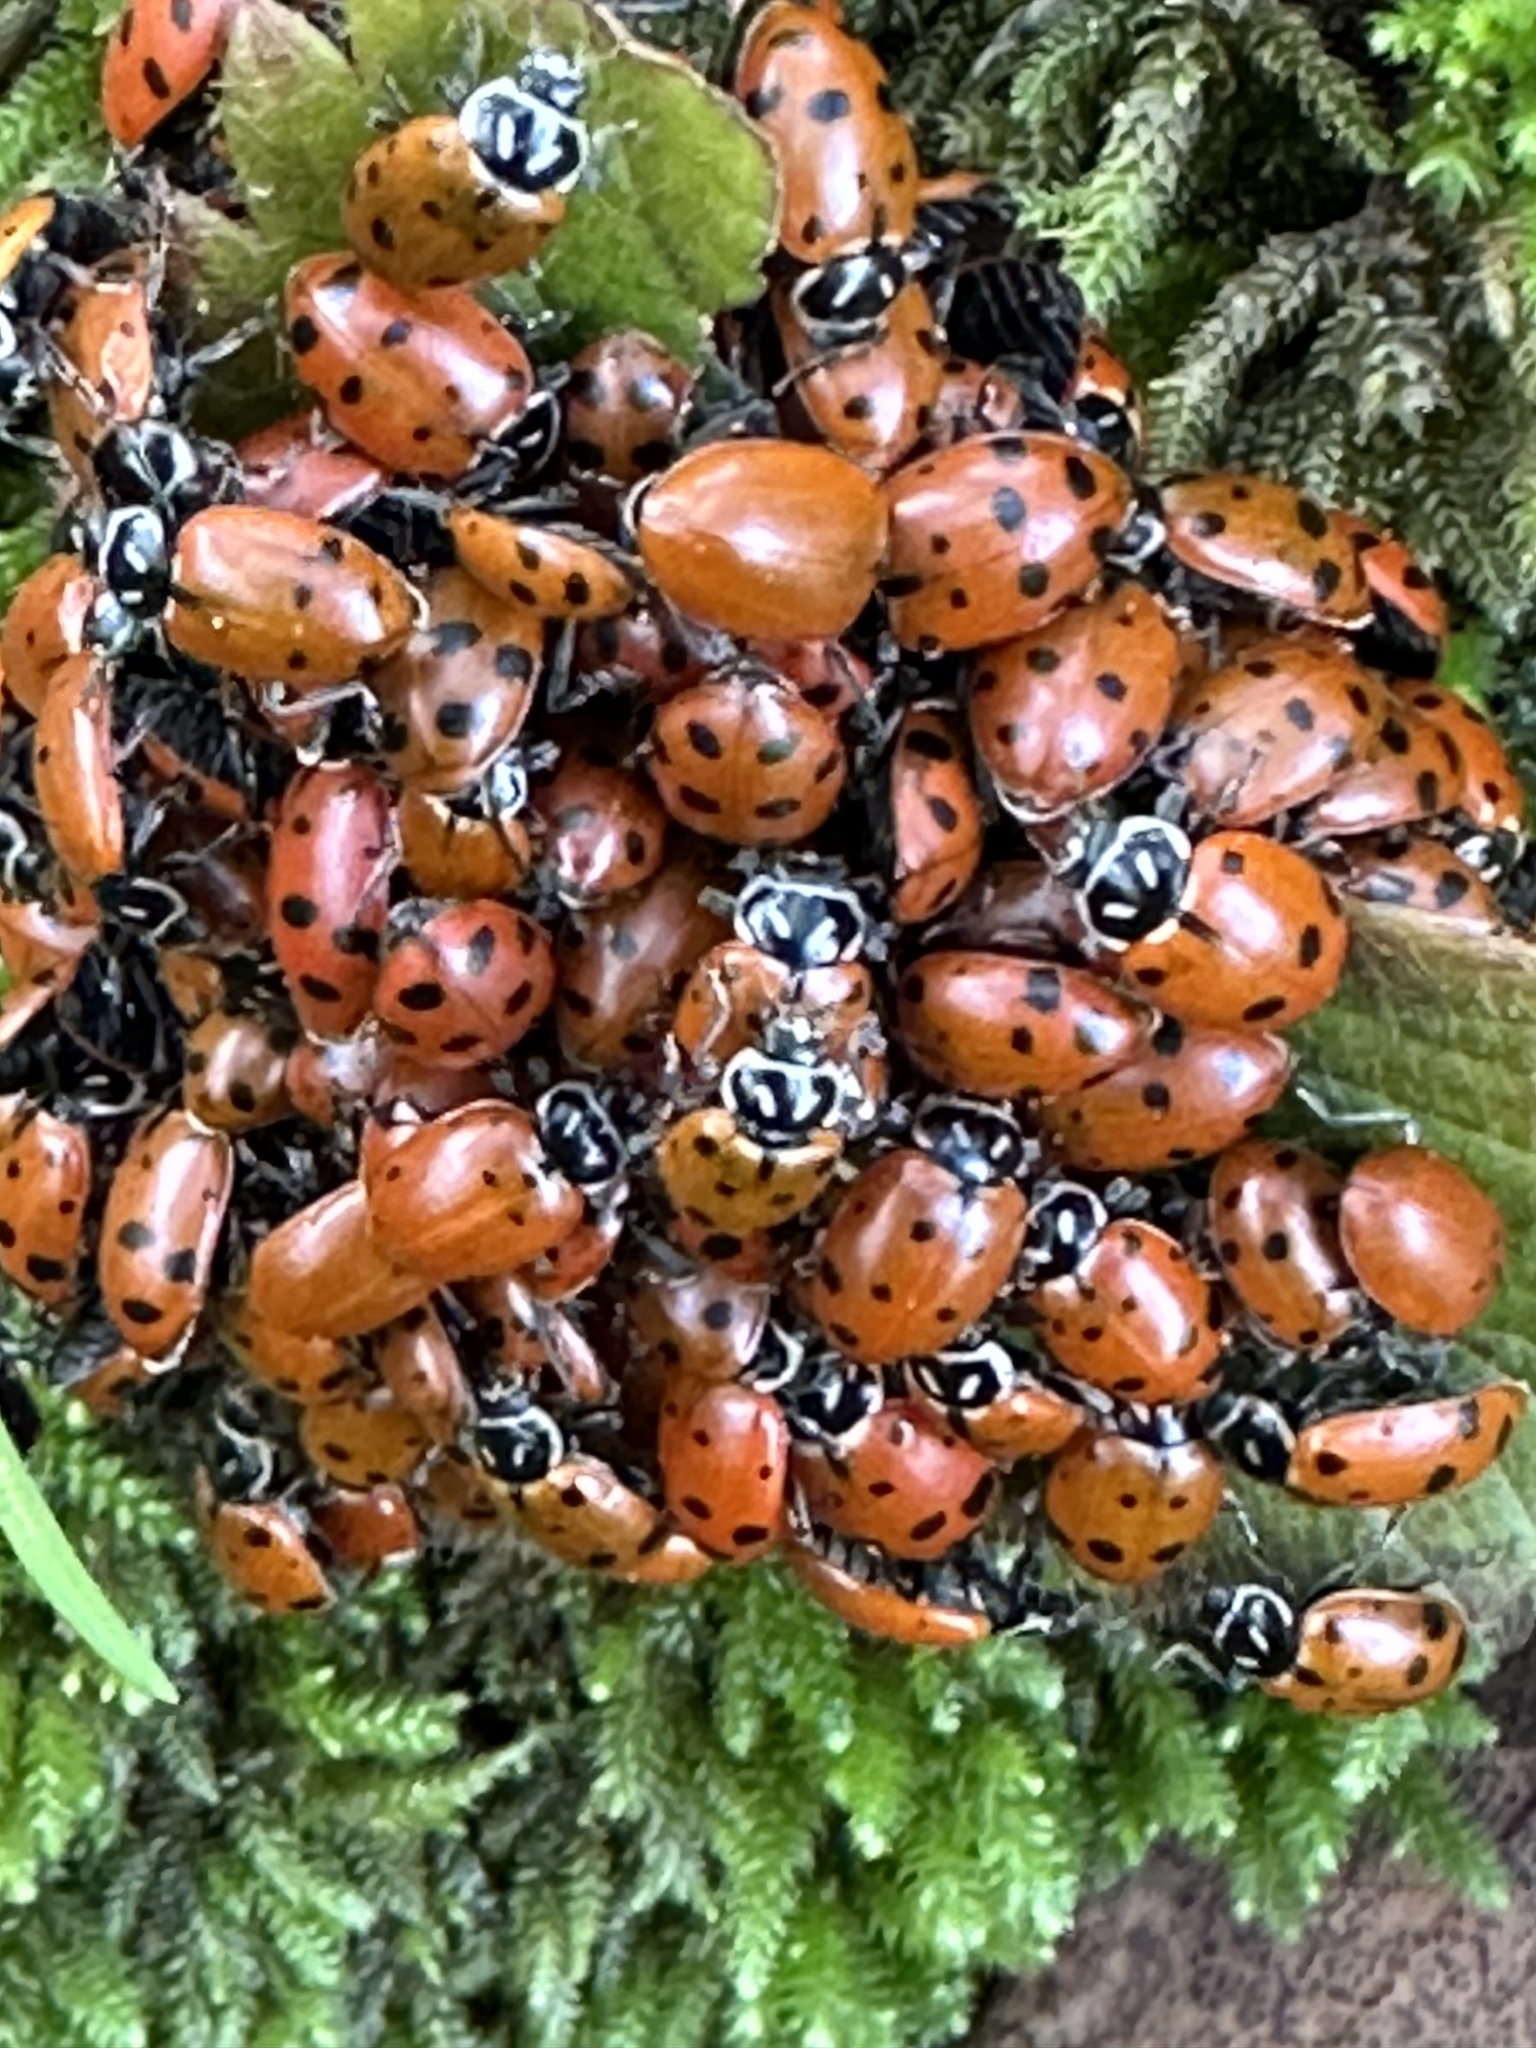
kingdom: Animalia
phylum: Arthropoda
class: Insecta
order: Coleoptera
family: Coccinellidae
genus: Hippodamia
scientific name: Hippodamia convergens
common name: Convergent lady beetle
